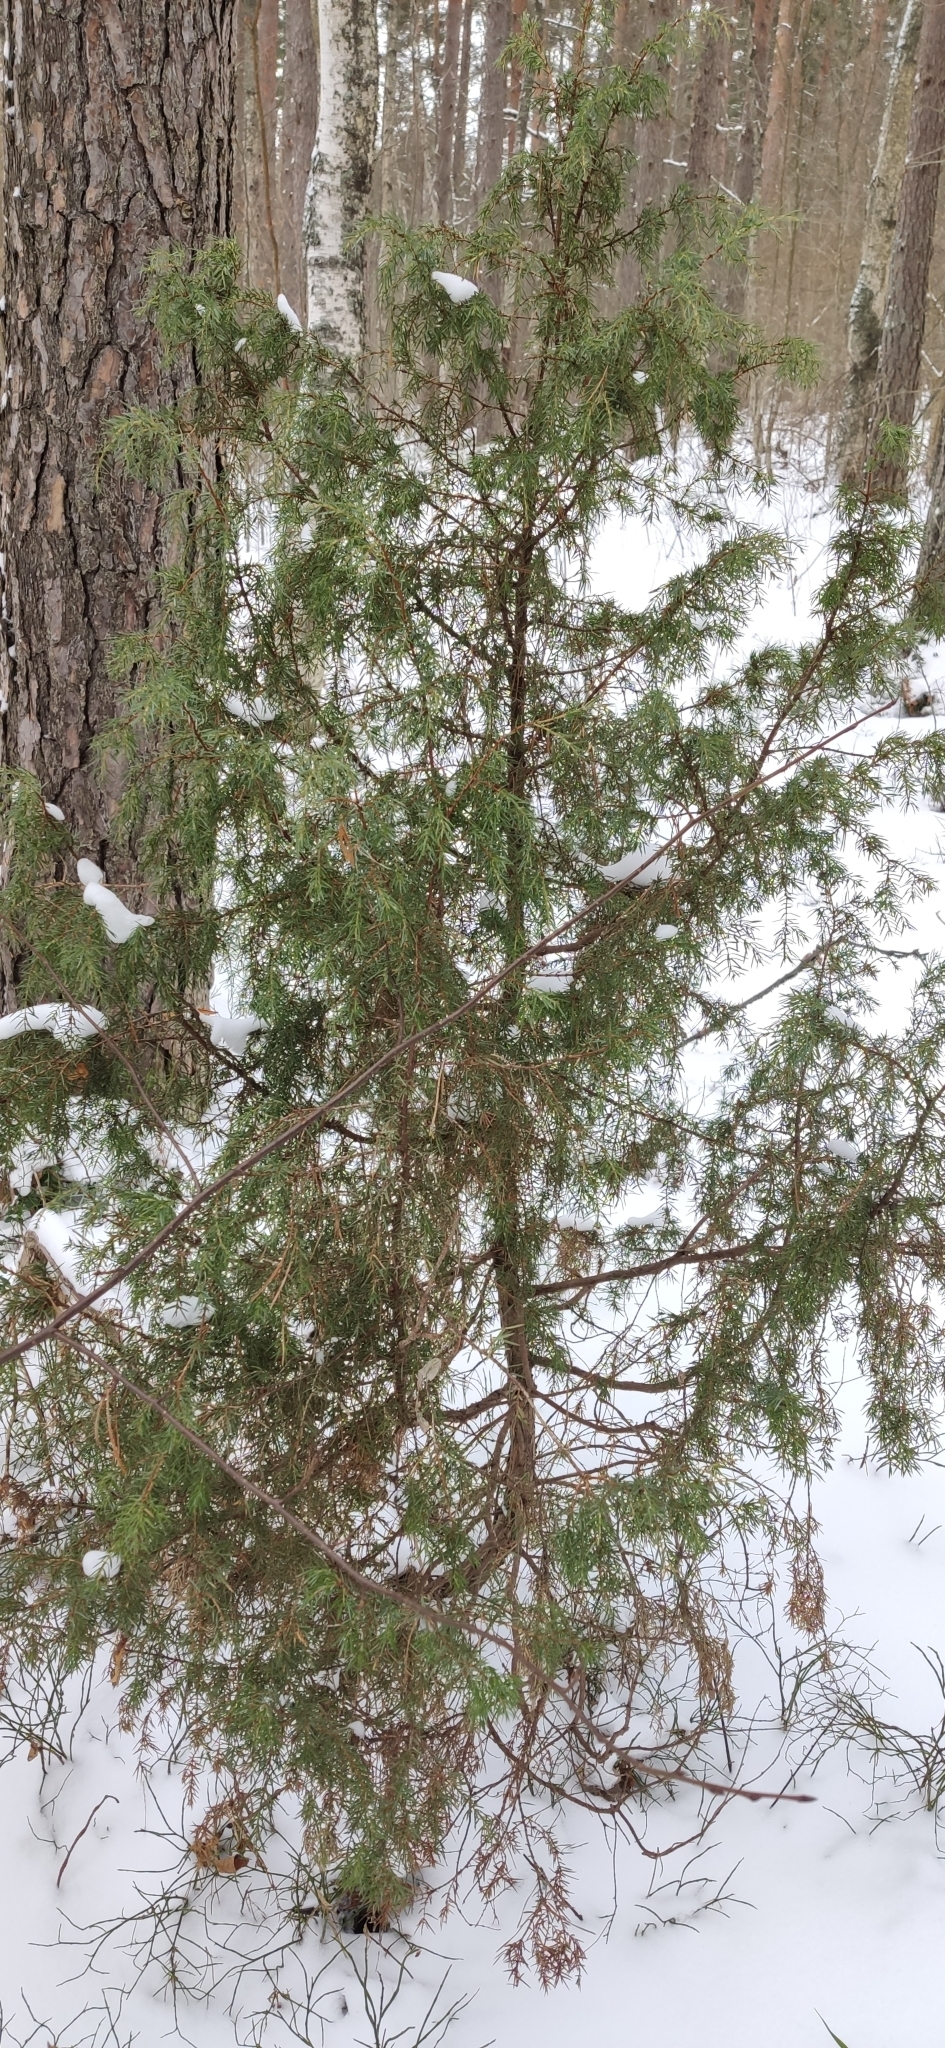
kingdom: Plantae
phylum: Tracheophyta
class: Pinopsida
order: Pinales
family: Cupressaceae
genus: Juniperus
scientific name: Juniperus communis
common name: Common juniper
